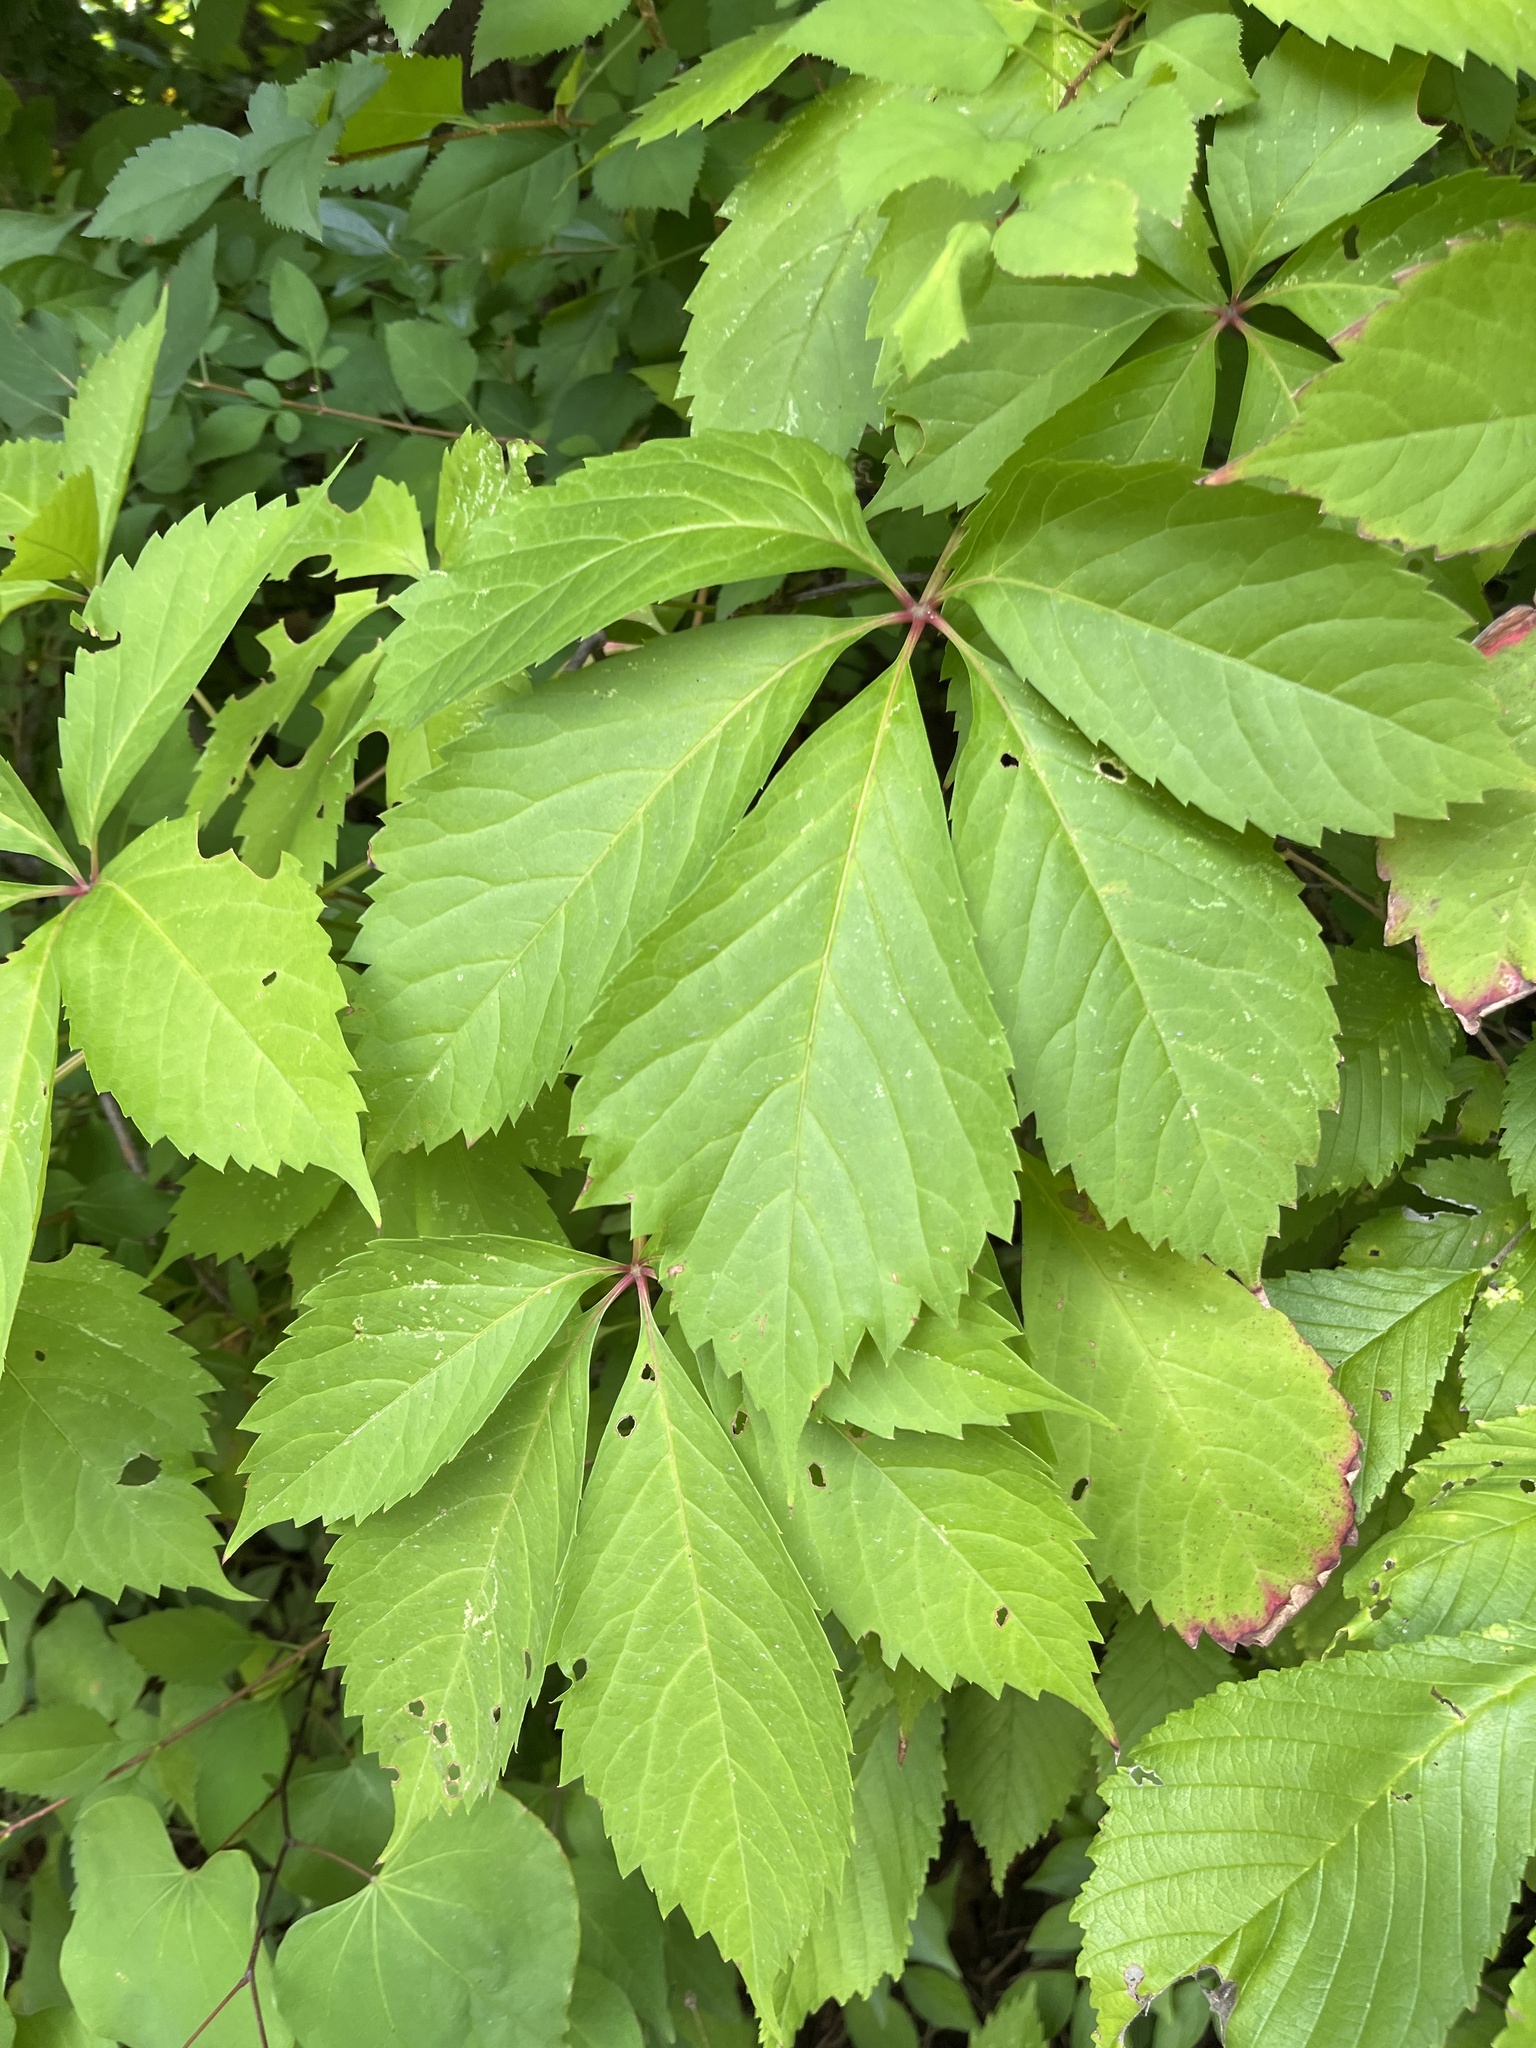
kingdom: Plantae
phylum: Tracheophyta
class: Magnoliopsida
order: Vitales
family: Vitaceae
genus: Parthenocissus
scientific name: Parthenocissus quinquefolia
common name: Virginia-creeper
